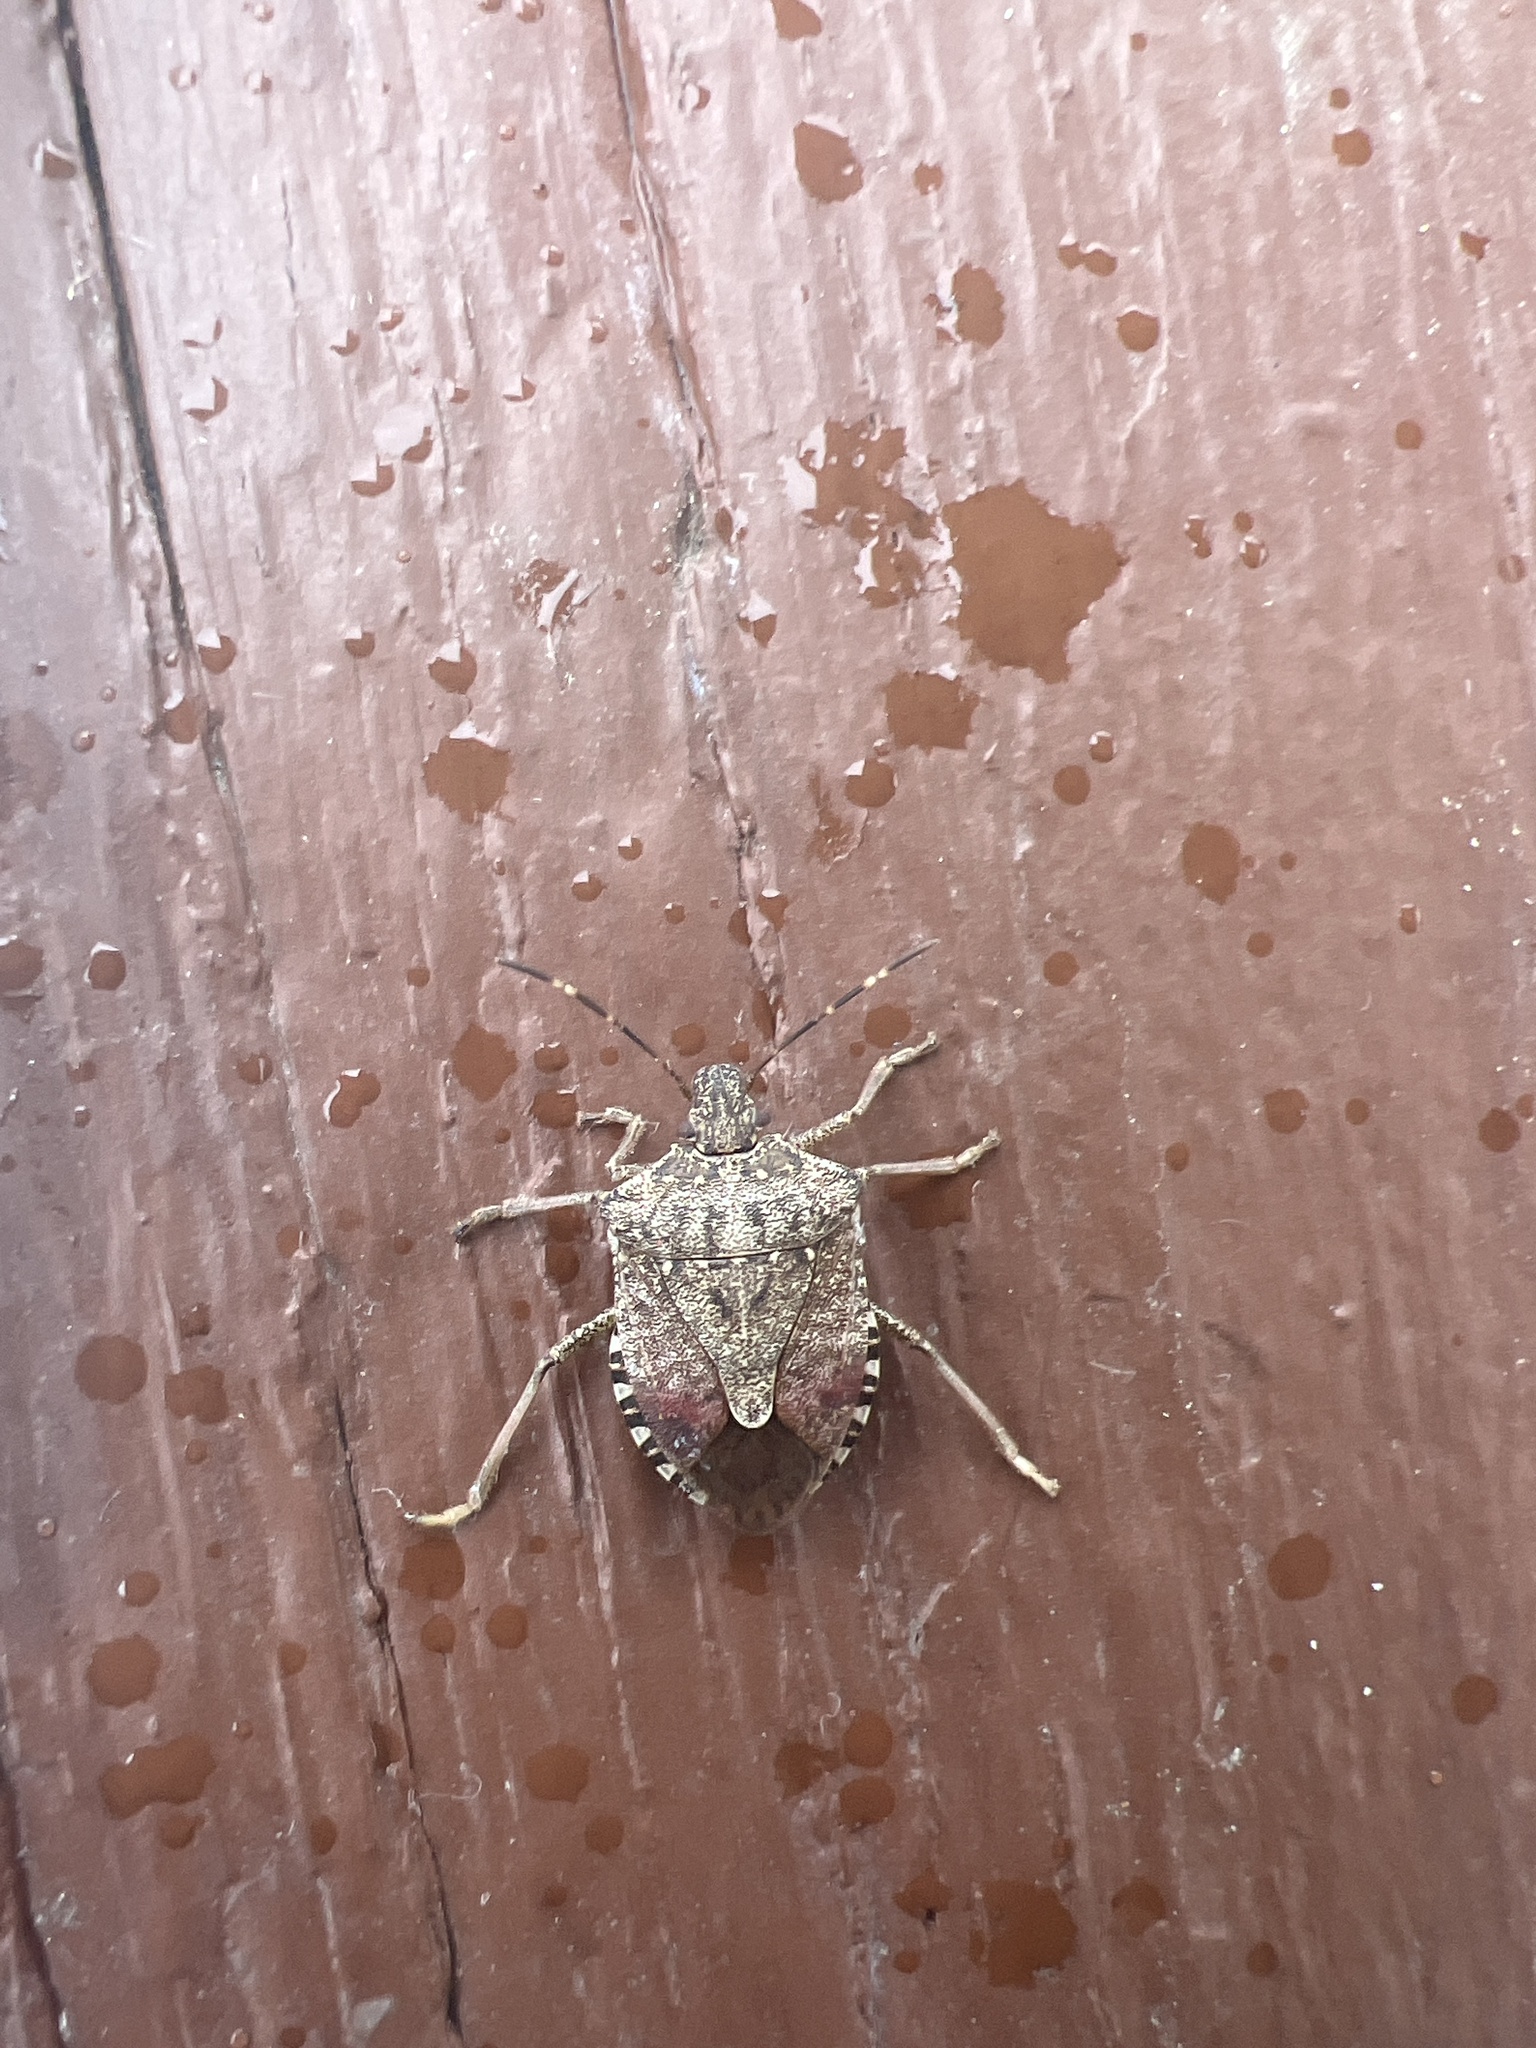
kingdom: Animalia
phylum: Arthropoda
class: Insecta
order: Hemiptera
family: Pentatomidae
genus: Halyomorpha
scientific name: Halyomorpha halys
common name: Brown marmorated stink bug
